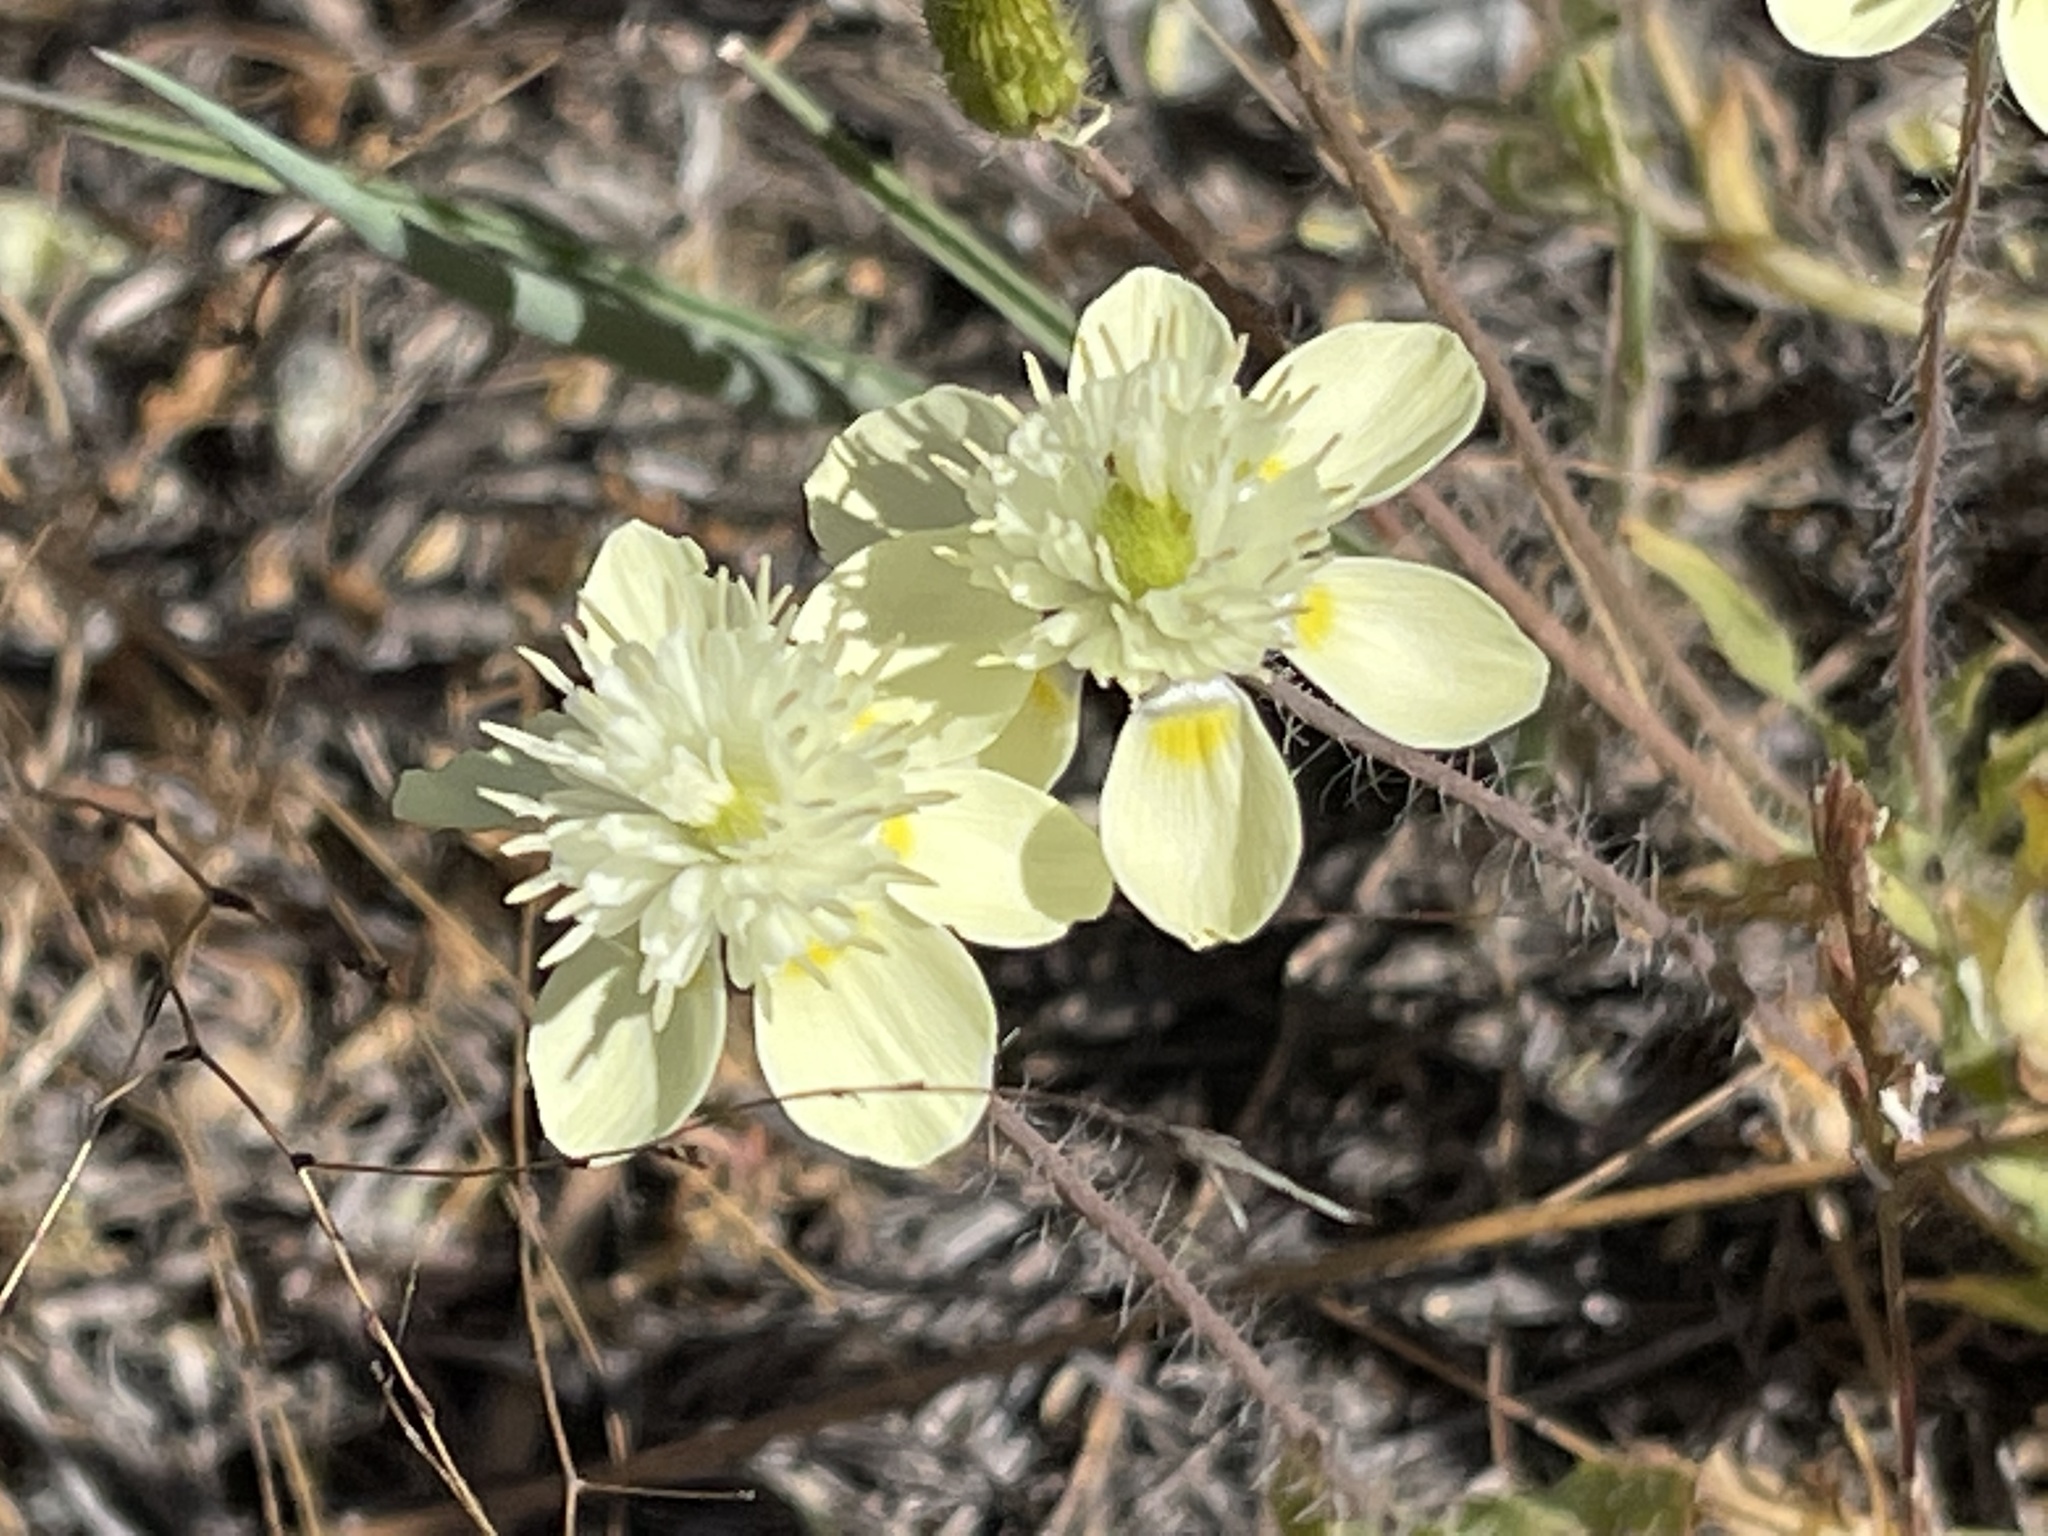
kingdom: Plantae
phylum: Tracheophyta
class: Magnoliopsida
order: Ranunculales
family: Papaveraceae
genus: Platystemon
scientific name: Platystemon californicus
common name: Cream-cups
